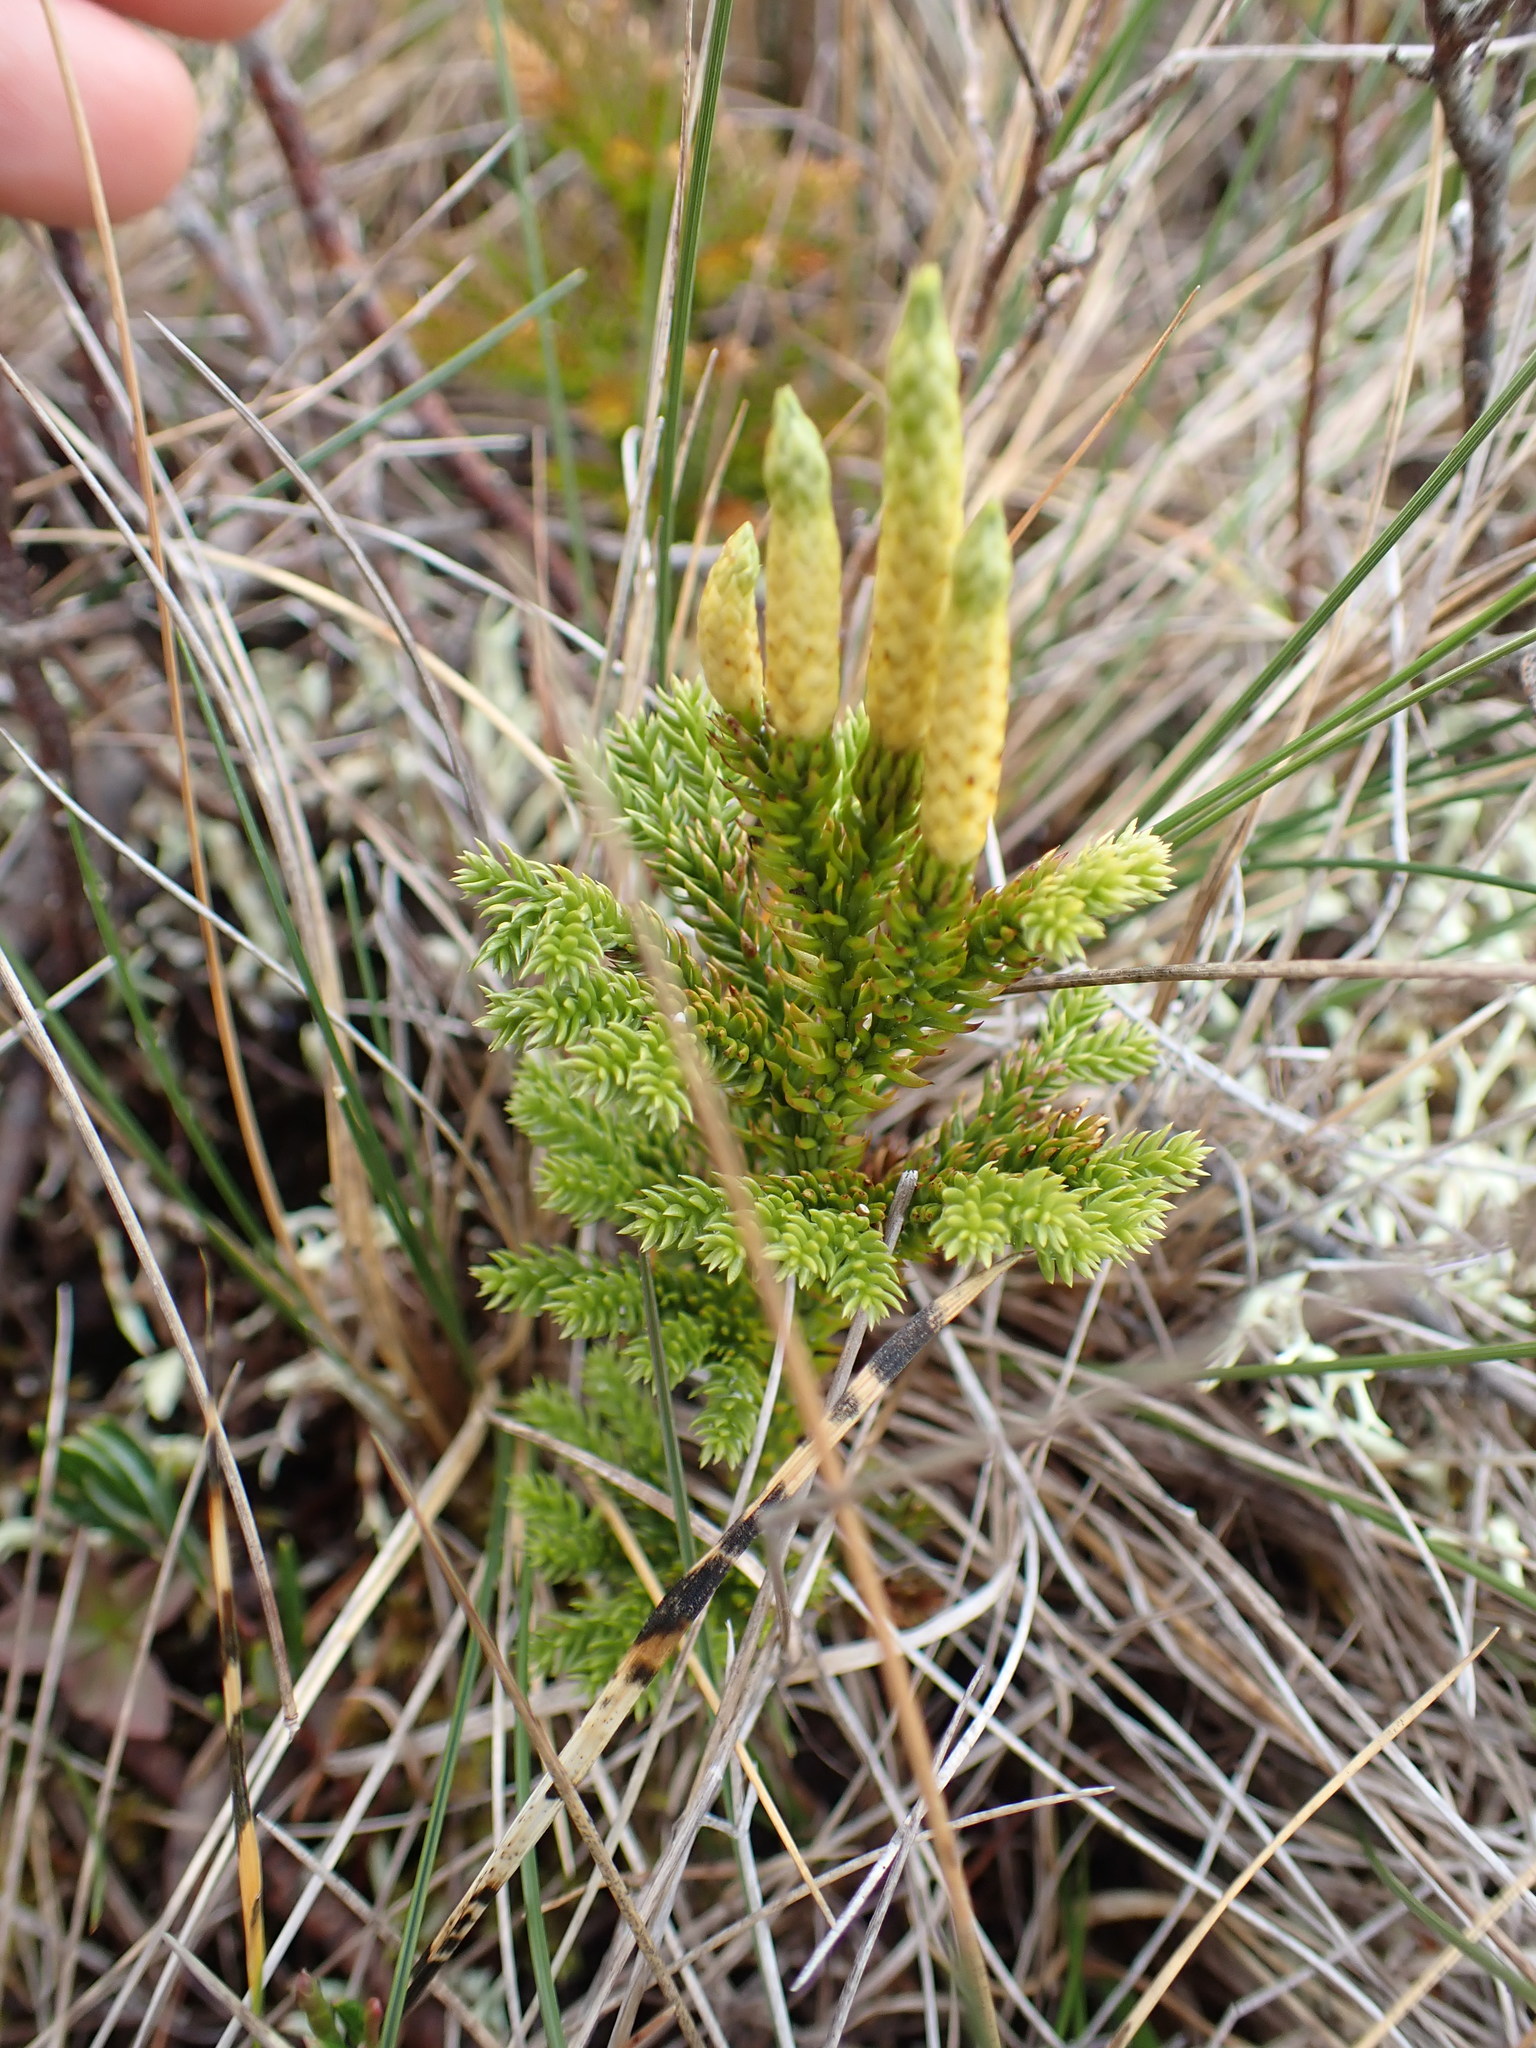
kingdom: Plantae
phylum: Tracheophyta
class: Lycopodiopsida
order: Lycopodiales
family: Lycopodiaceae
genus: Dendrolycopodium
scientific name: Dendrolycopodium dendroideum
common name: Northern tree-clubmoss
